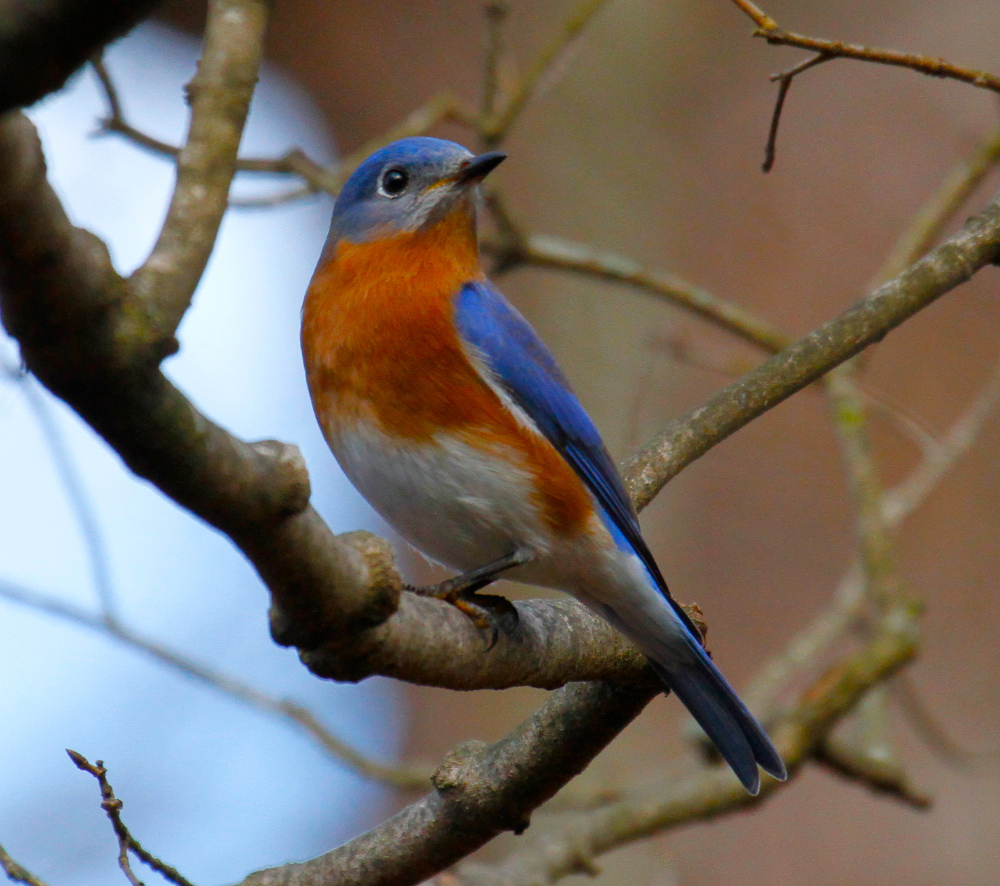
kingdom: Animalia
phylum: Chordata
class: Aves
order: Passeriformes
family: Turdidae
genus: Sialia
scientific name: Sialia sialis
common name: Eastern bluebird
